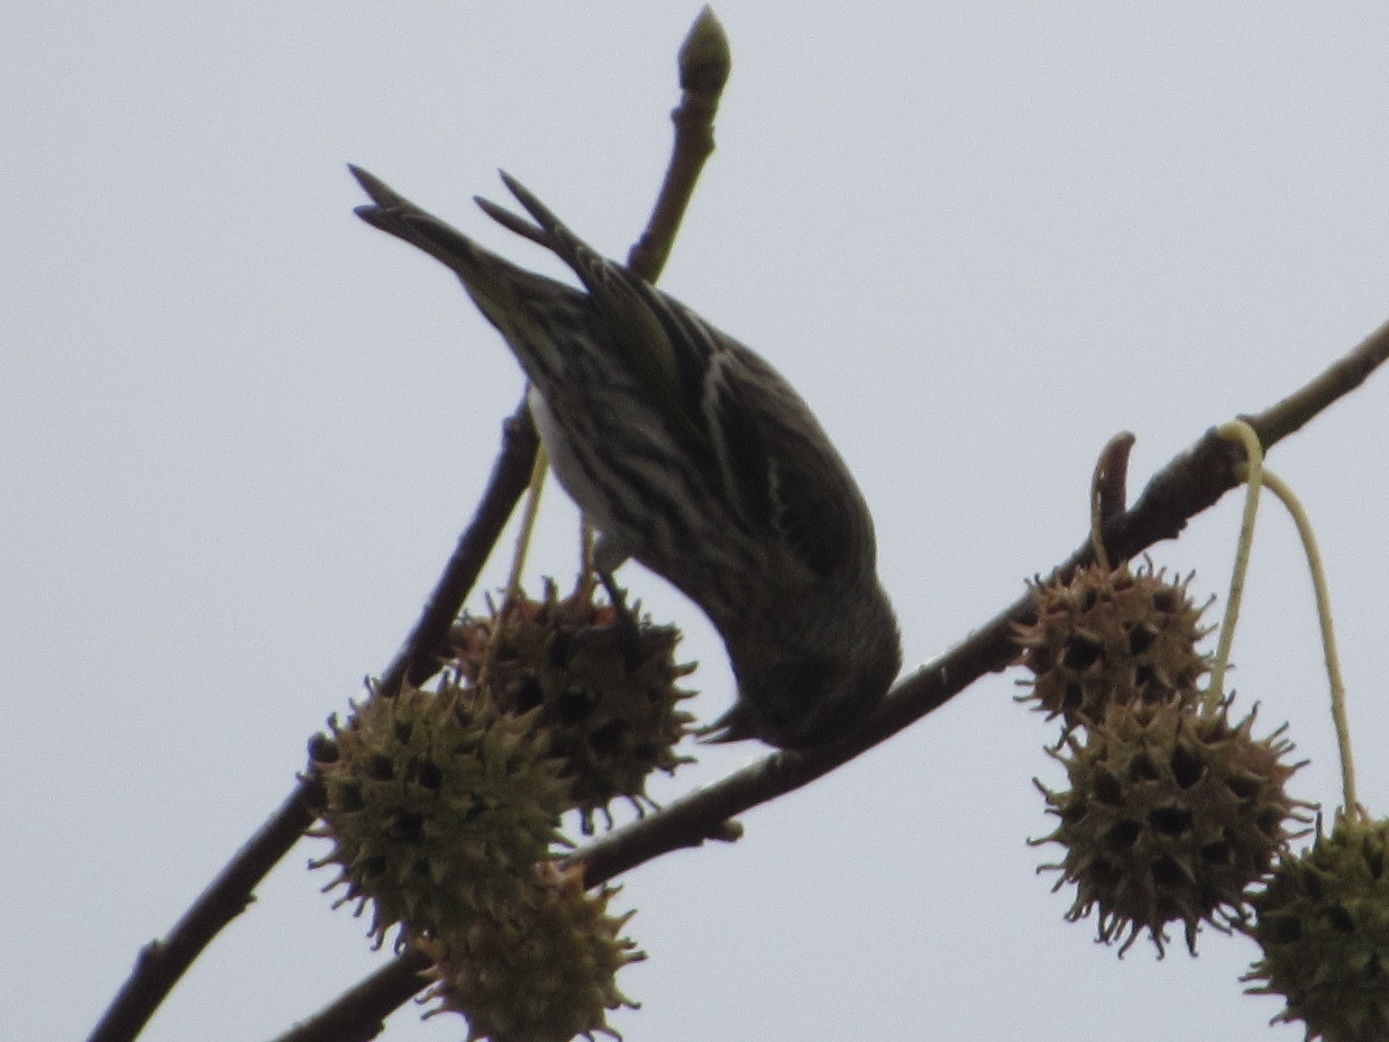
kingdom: Animalia
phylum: Chordata
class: Aves
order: Passeriformes
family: Fringillidae
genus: Spinus
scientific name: Spinus pinus
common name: Pine siskin
